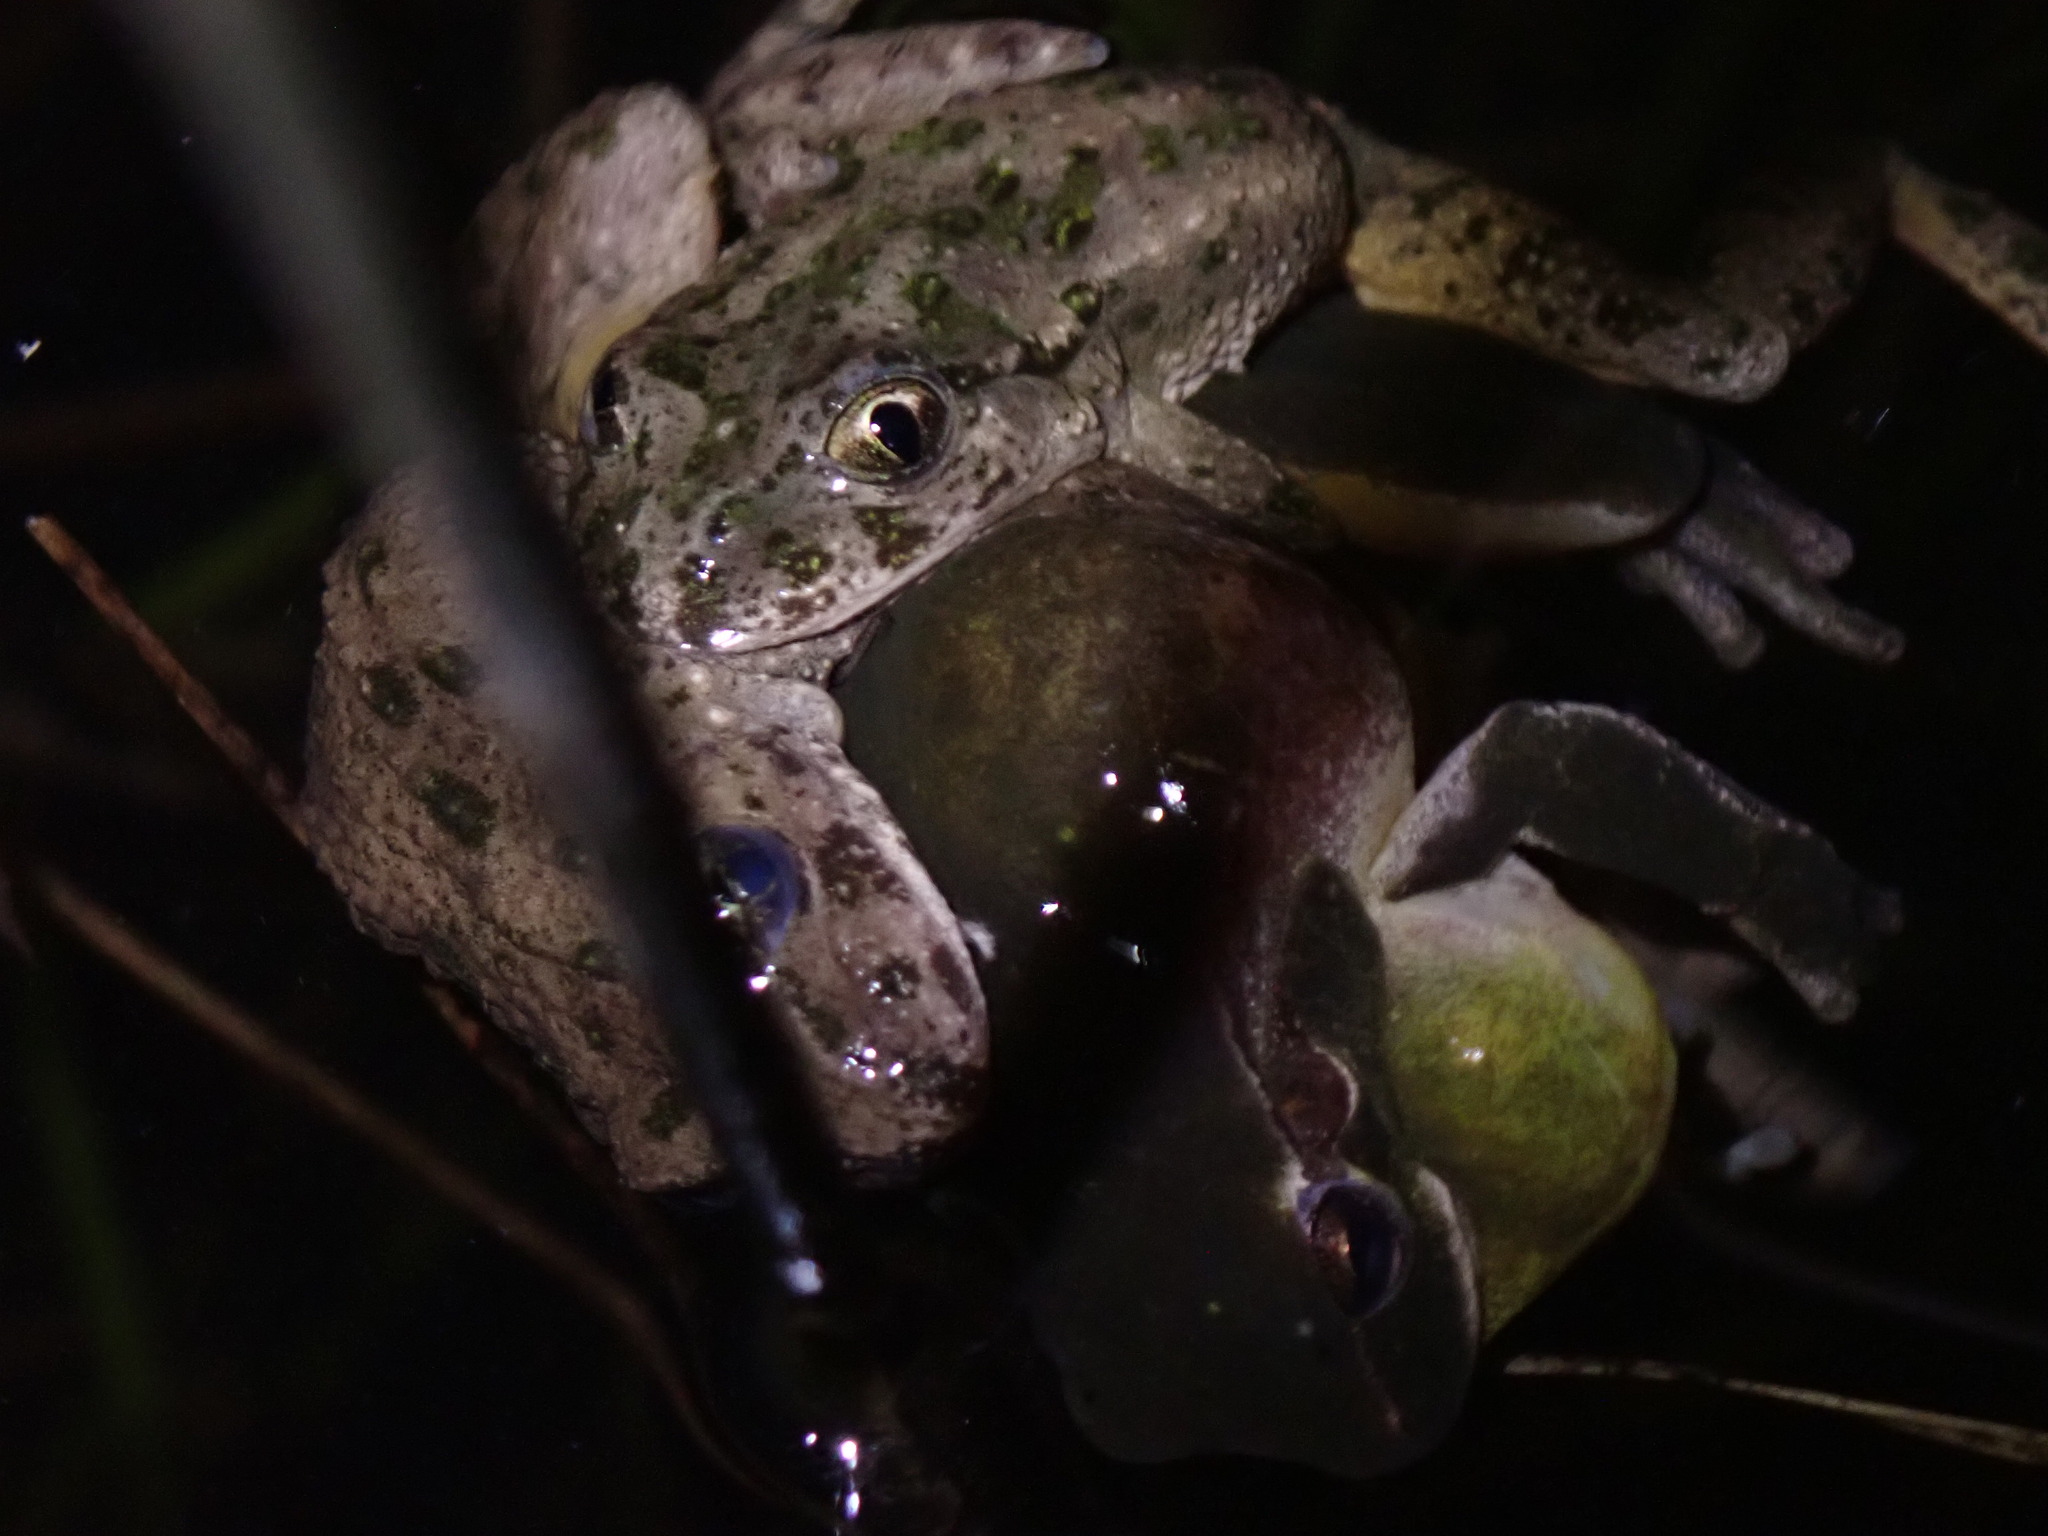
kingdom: Animalia
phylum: Chordata
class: Amphibia
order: Anura
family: Hylidae
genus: Hyla
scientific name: Hyla meridionalis
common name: Stripeless tree frog
